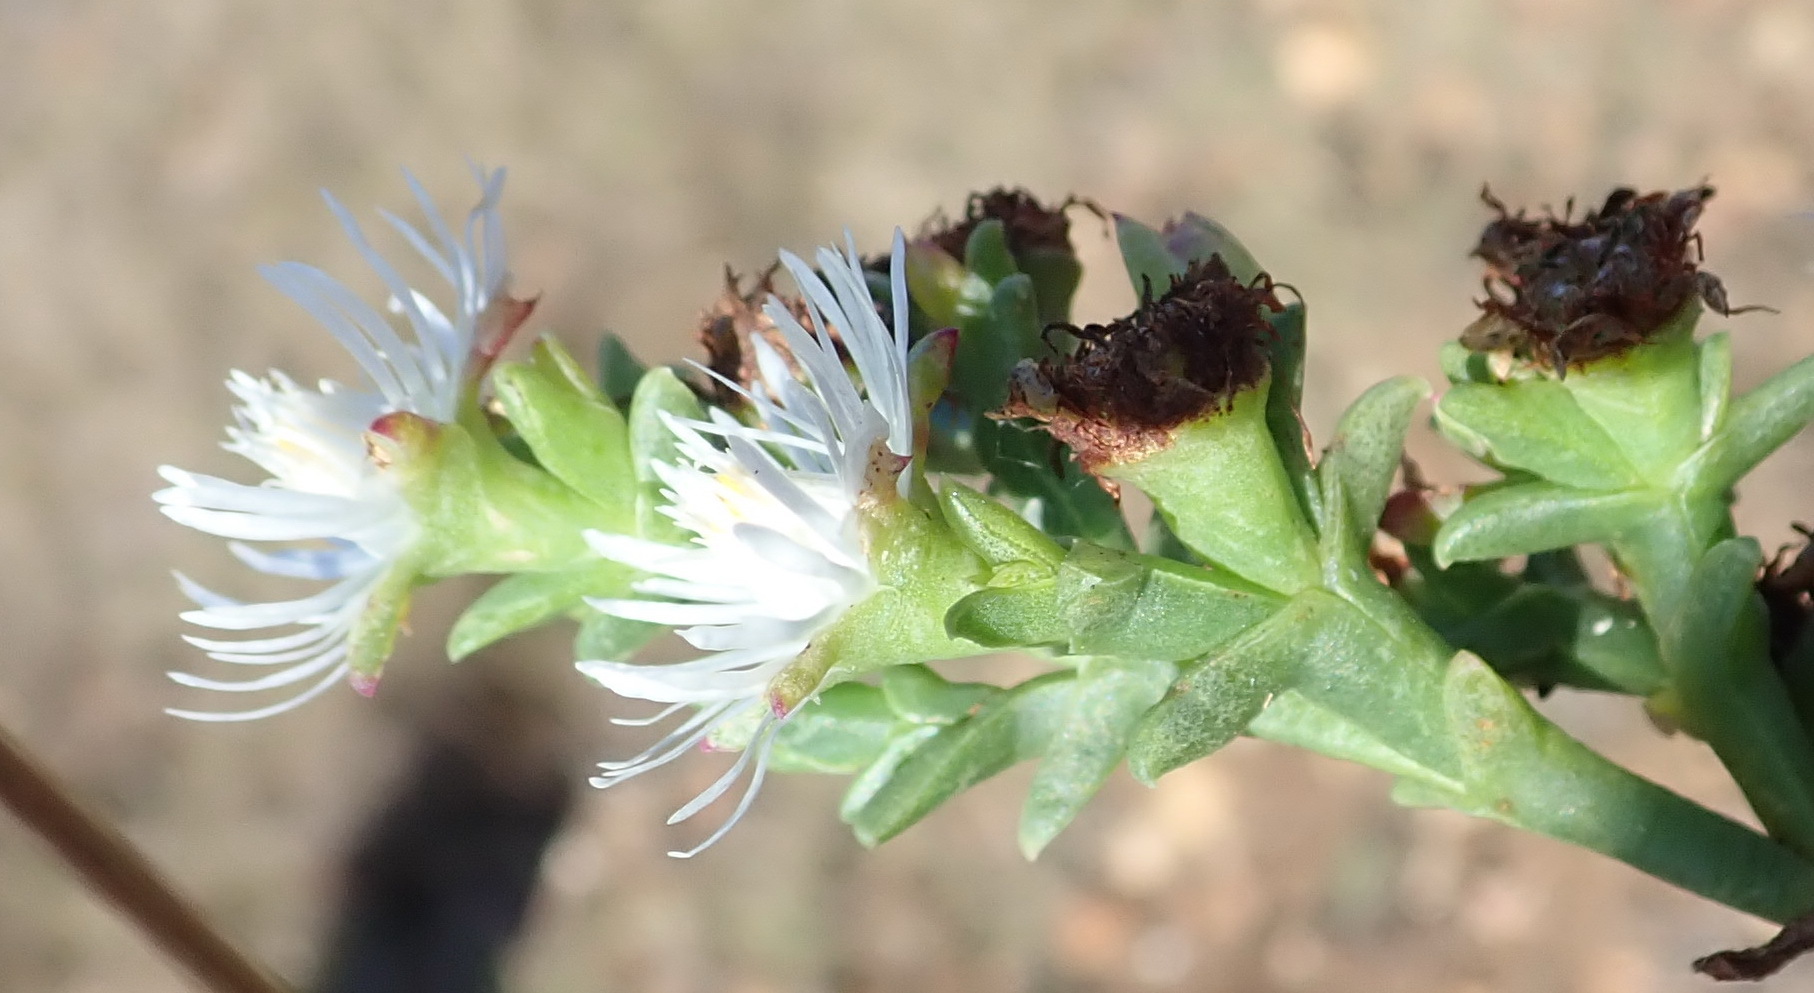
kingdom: Plantae
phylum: Tracheophyta
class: Magnoliopsida
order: Caryophyllales
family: Aizoaceae
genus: Ruschia
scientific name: Ruschia tenella
